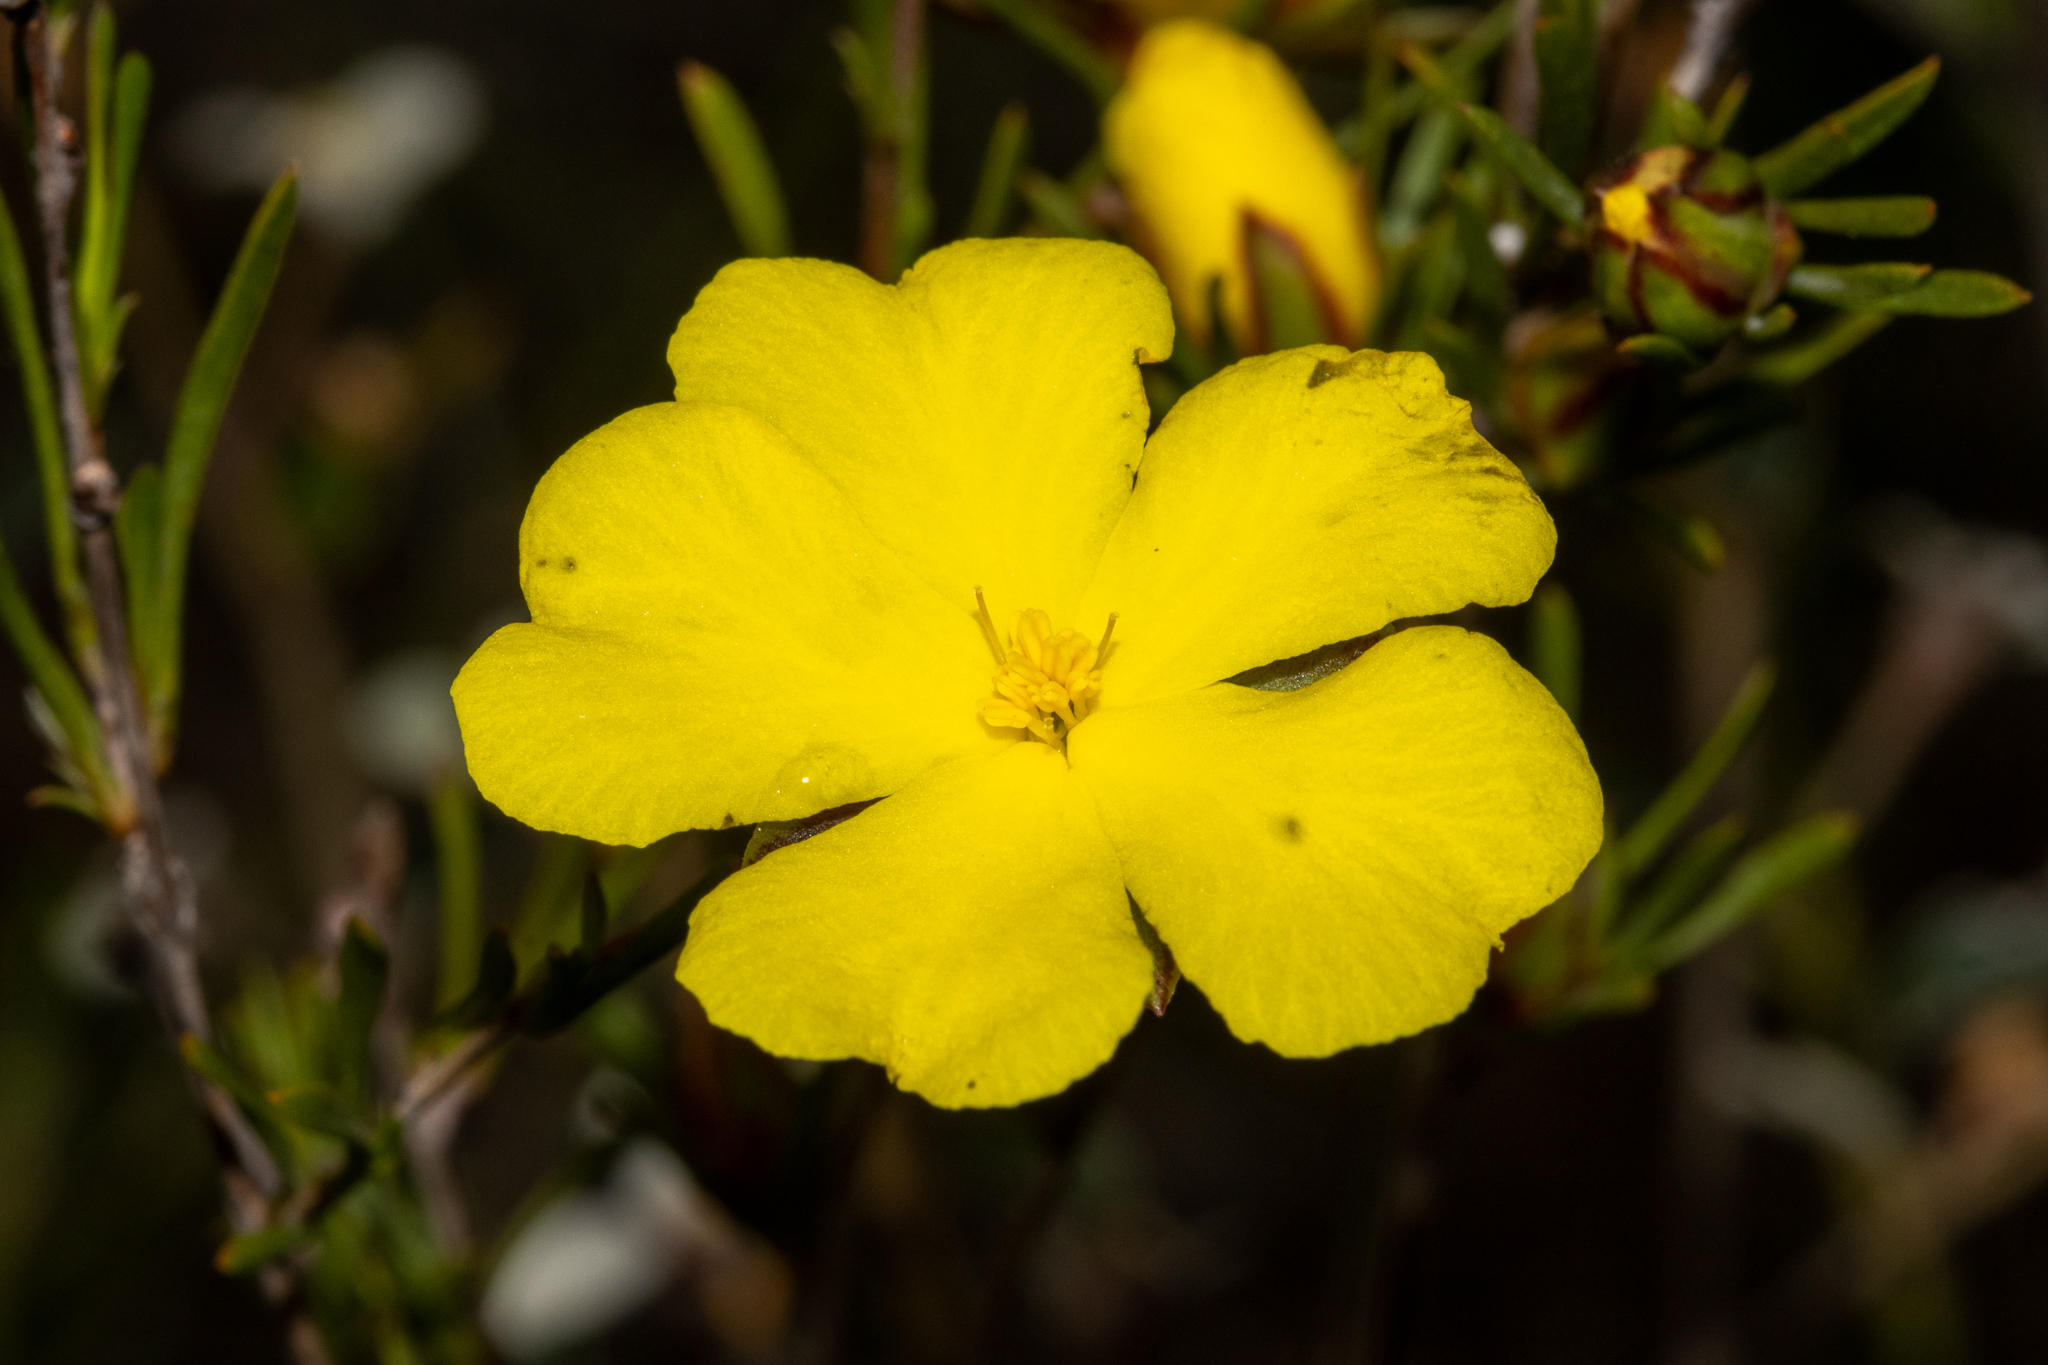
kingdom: Plantae
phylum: Tracheophyta
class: Magnoliopsida
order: Dilleniales
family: Dilleniaceae
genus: Hibbertia
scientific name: Hibbertia virgata
